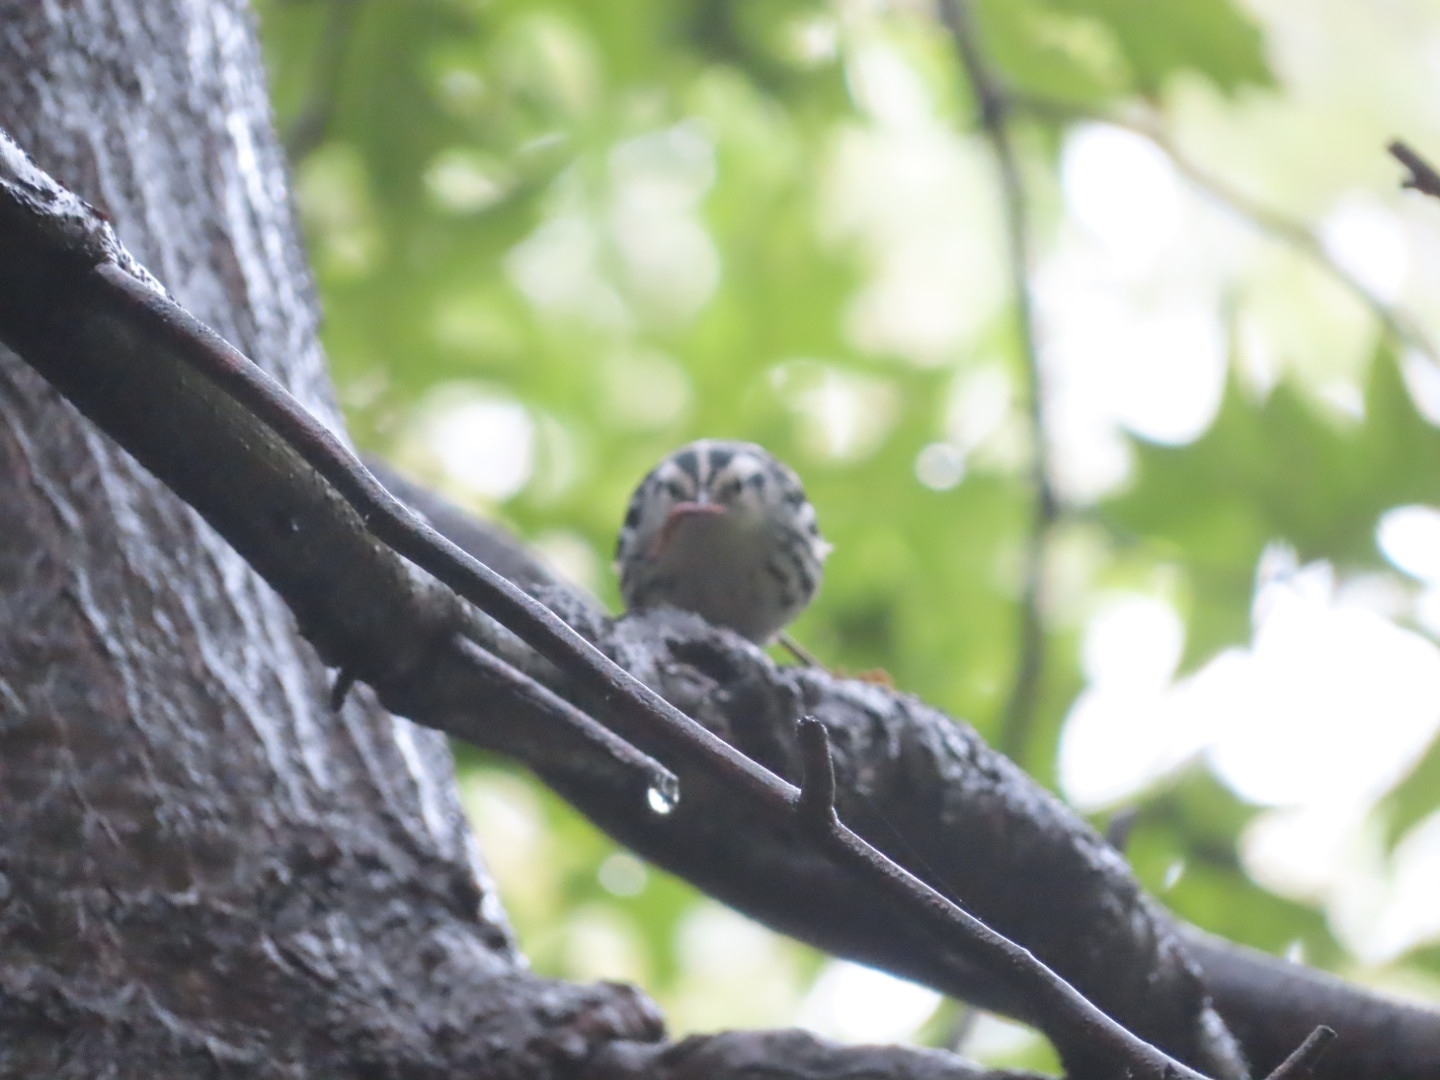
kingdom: Animalia
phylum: Chordata
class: Aves
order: Passeriformes
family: Parulidae
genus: Mniotilta
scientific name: Mniotilta varia
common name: Black-and-white warbler
